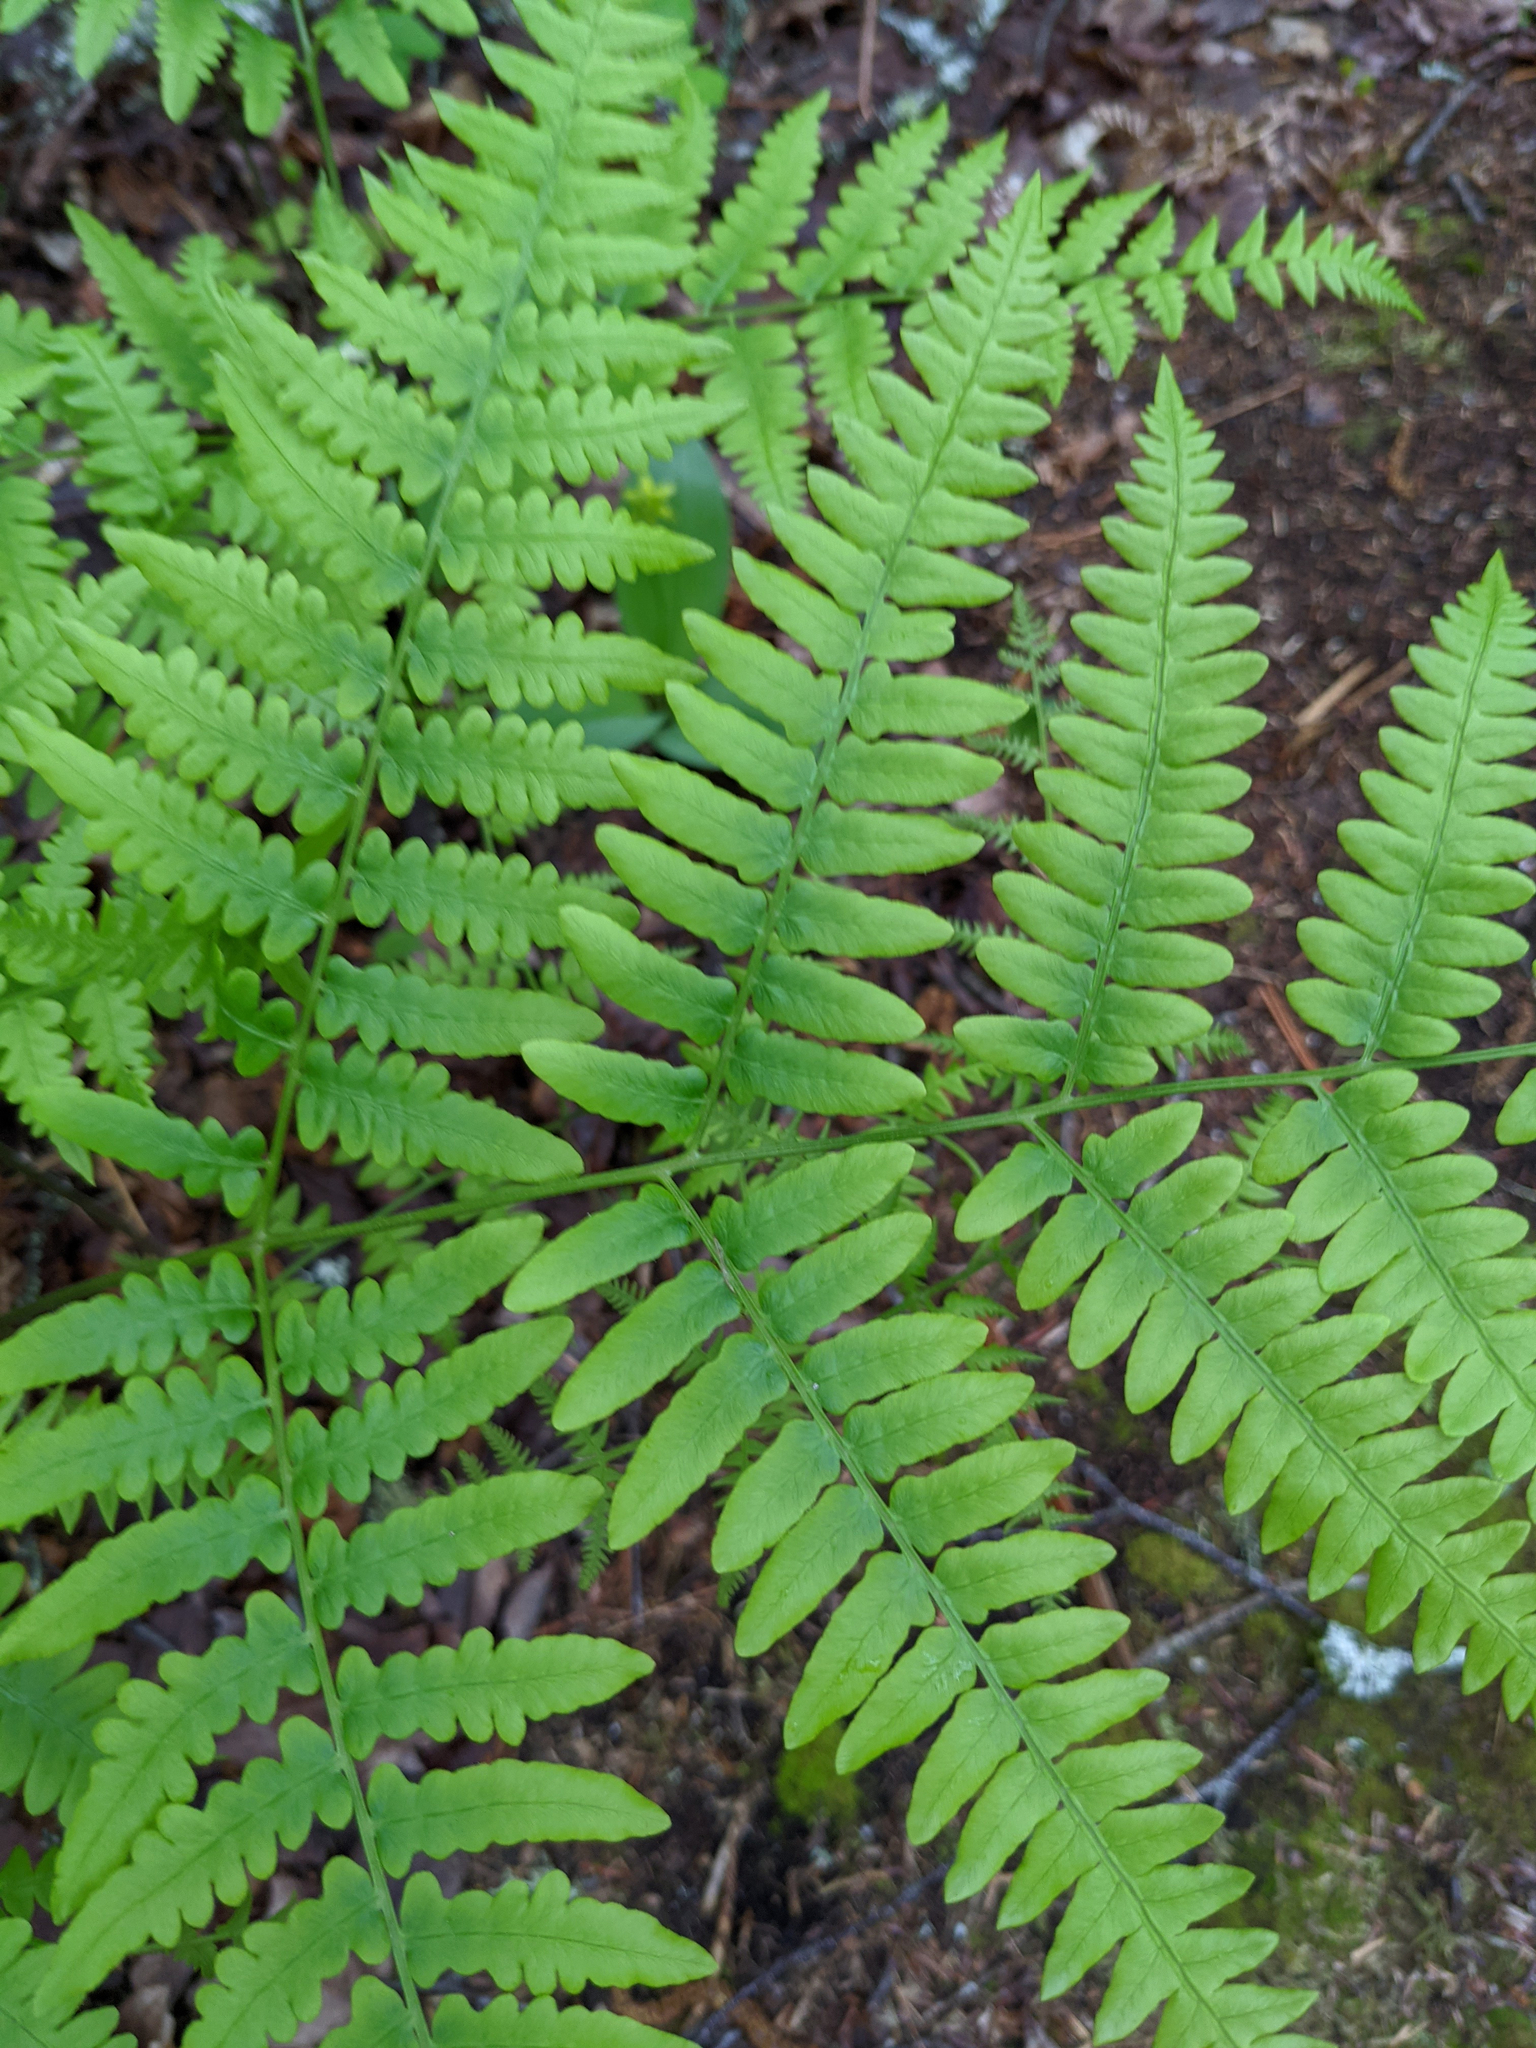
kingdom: Plantae
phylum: Tracheophyta
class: Polypodiopsida
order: Polypodiales
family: Dennstaedtiaceae
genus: Pteridium
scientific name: Pteridium aquilinum
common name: Bracken
